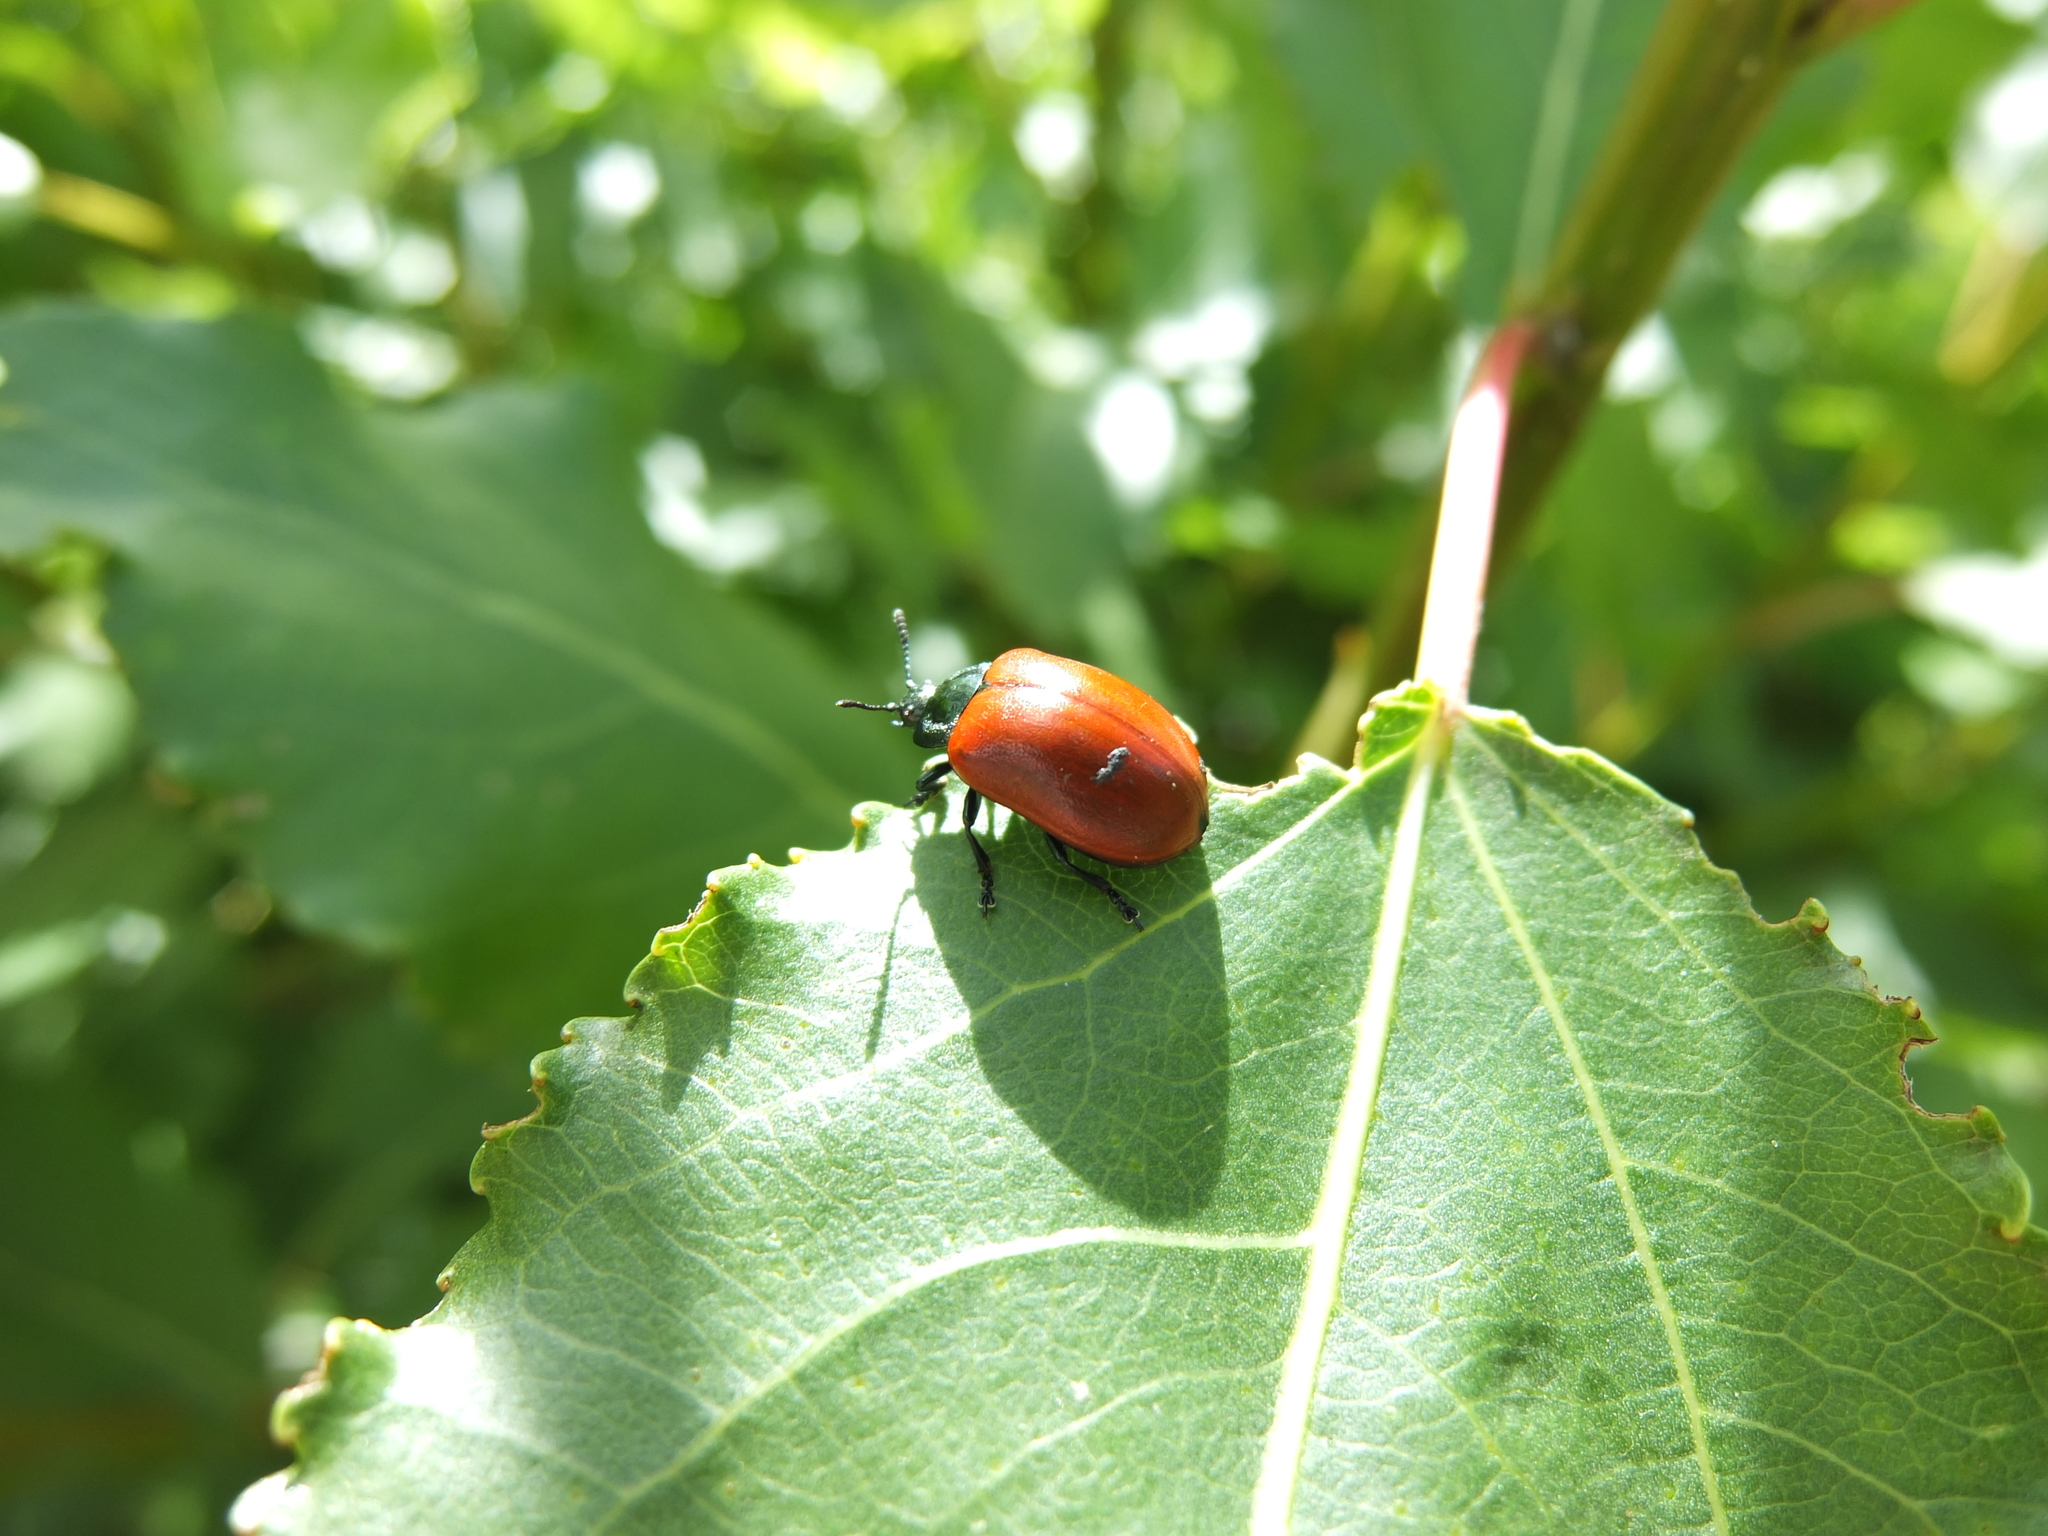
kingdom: Animalia
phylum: Arthropoda
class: Insecta
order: Coleoptera
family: Chrysomelidae
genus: Chrysomela
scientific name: Chrysomela populi
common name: Red poplar leaf beetle
